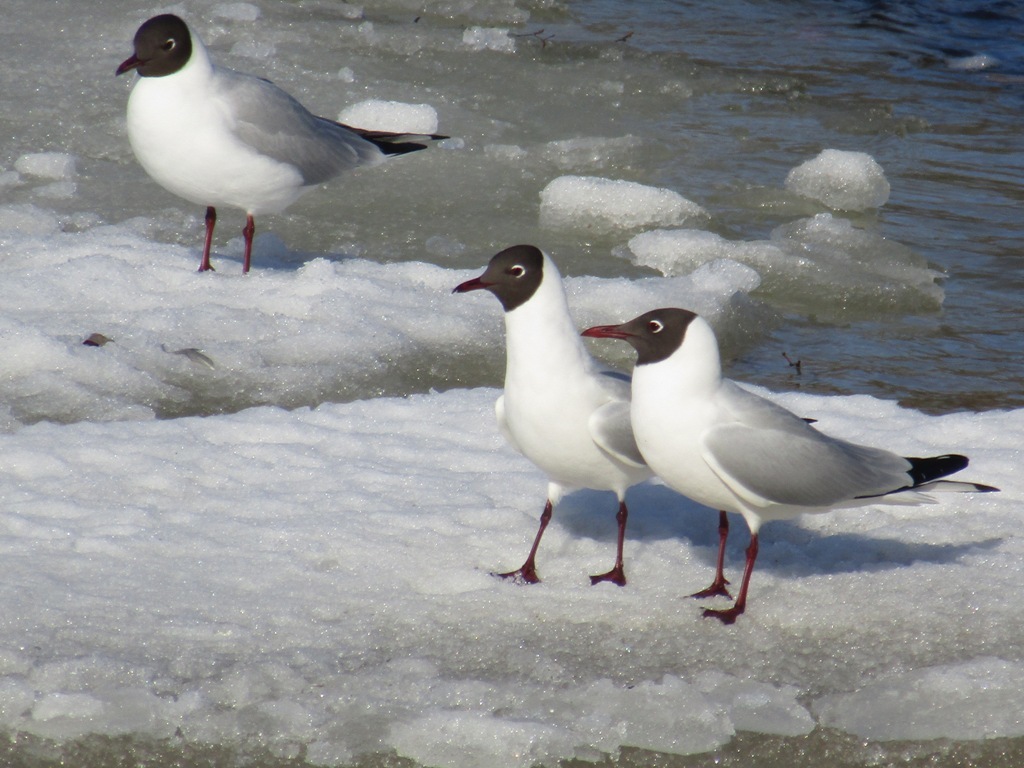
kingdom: Animalia
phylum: Chordata
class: Aves
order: Charadriiformes
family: Laridae
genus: Chroicocephalus
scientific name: Chroicocephalus ridibundus
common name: Black-headed gull
